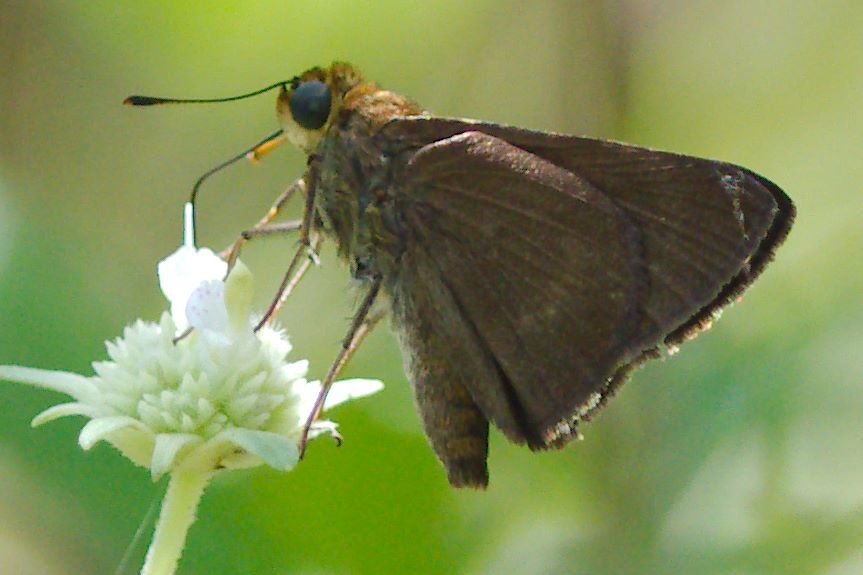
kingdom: Animalia
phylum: Arthropoda
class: Insecta
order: Lepidoptera
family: Hesperiidae
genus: Euphyes
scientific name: Euphyes vestris
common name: Dun skipper
